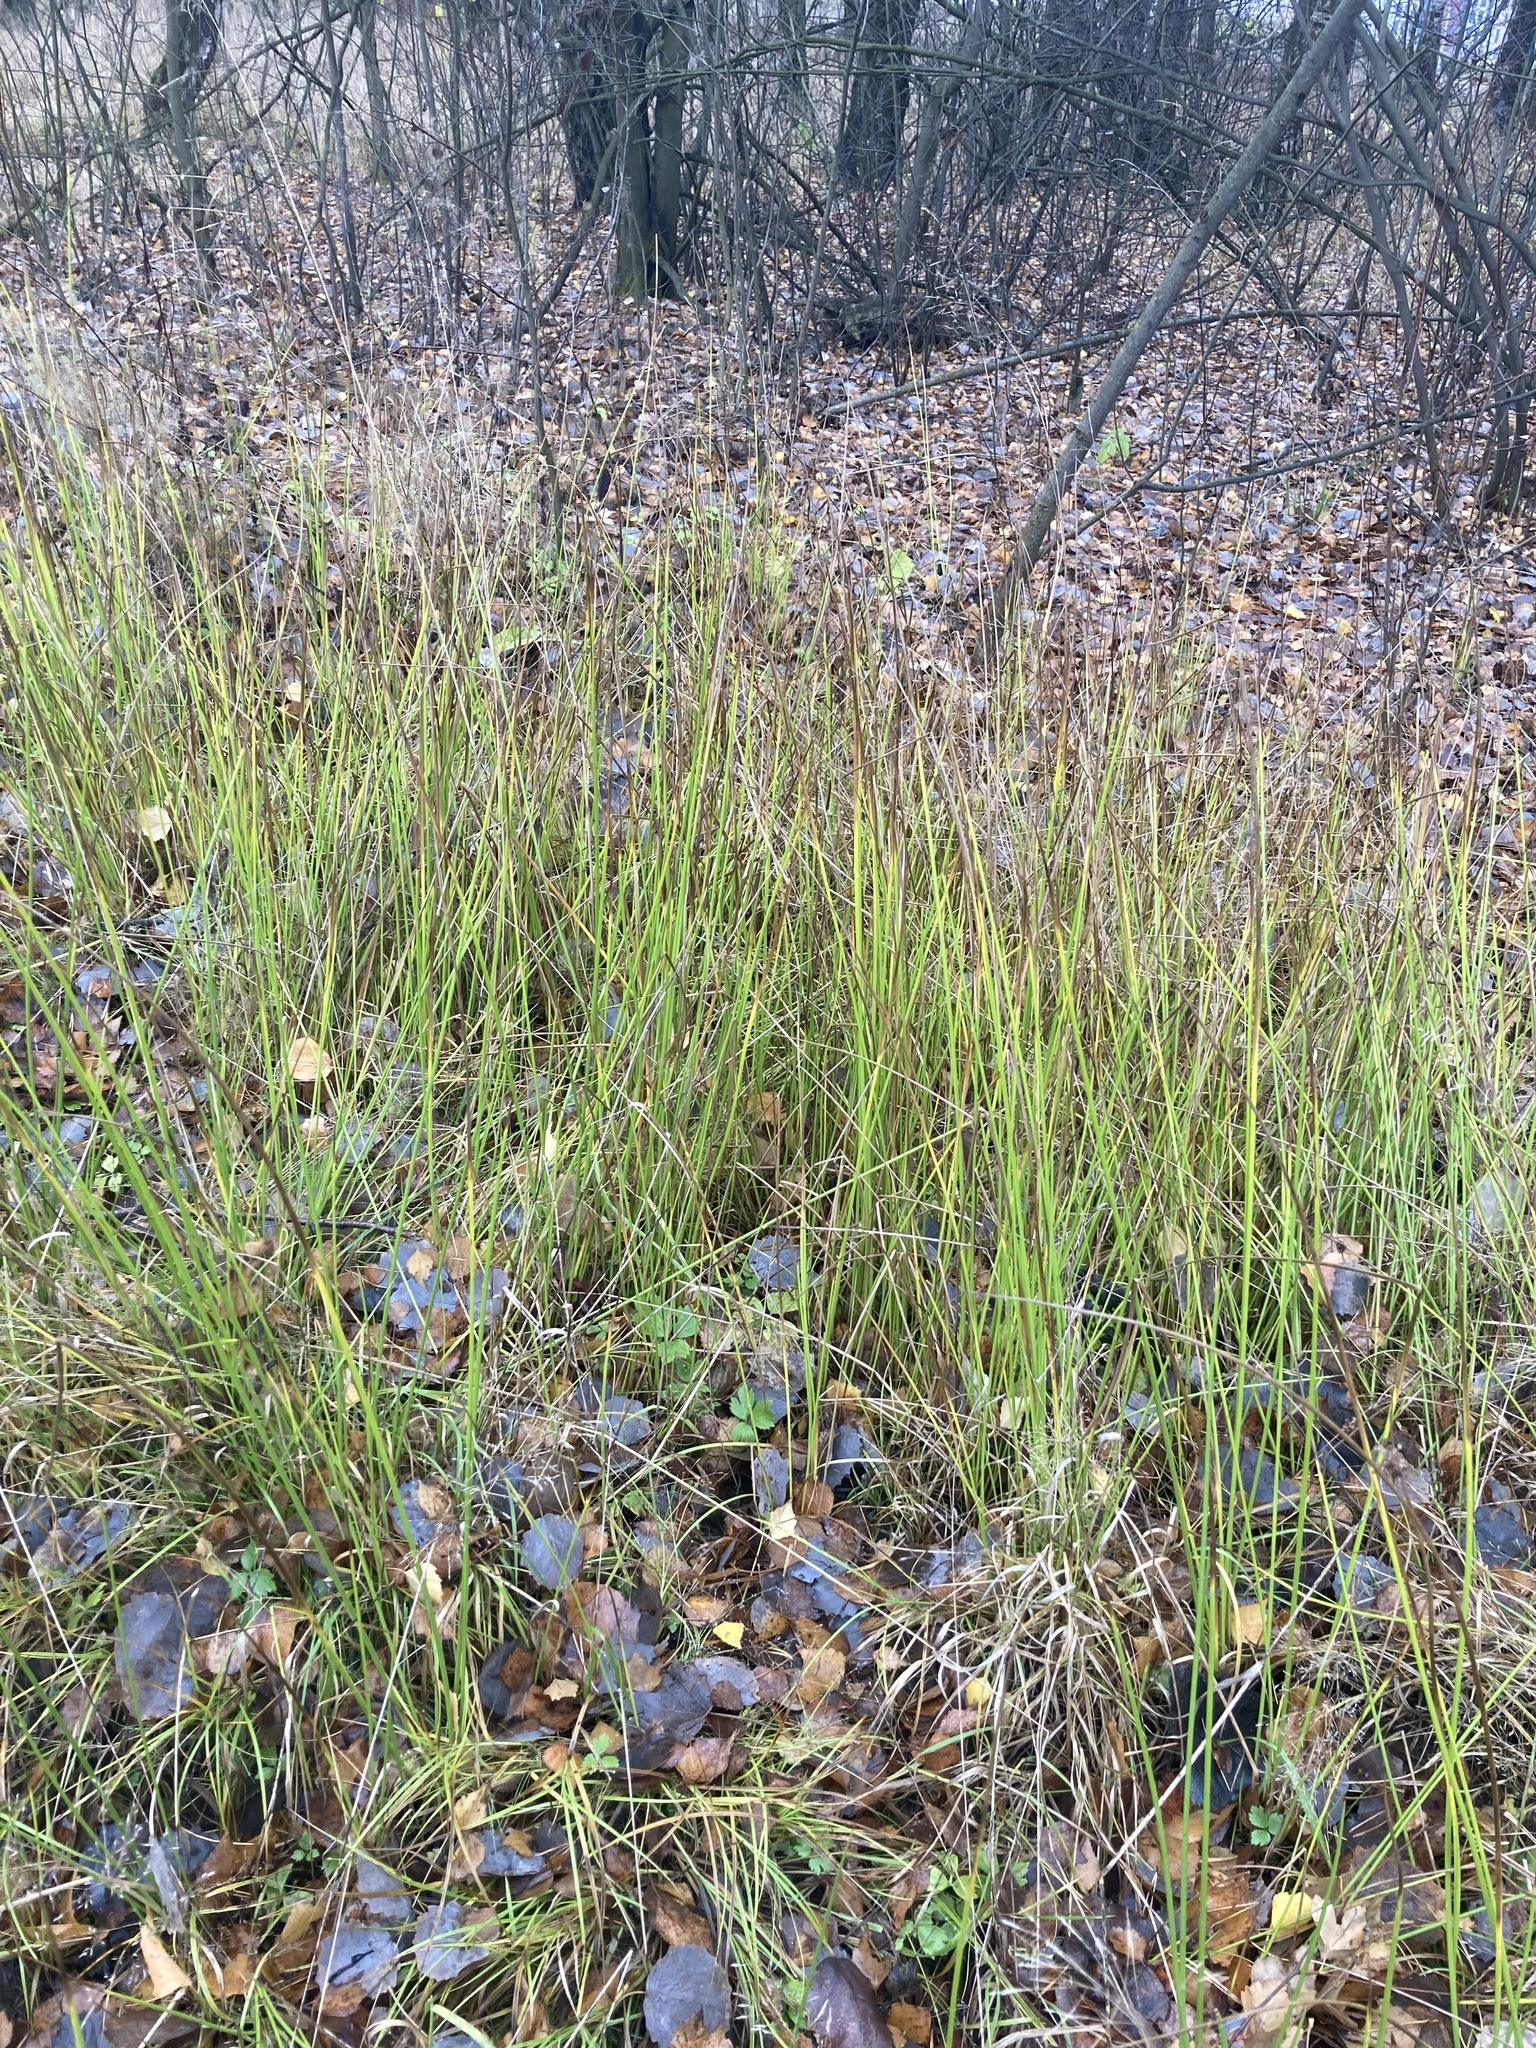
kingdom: Plantae
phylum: Tracheophyta
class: Liliopsida
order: Poales
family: Juncaceae
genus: Juncus
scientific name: Juncus effusus
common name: Soft rush
